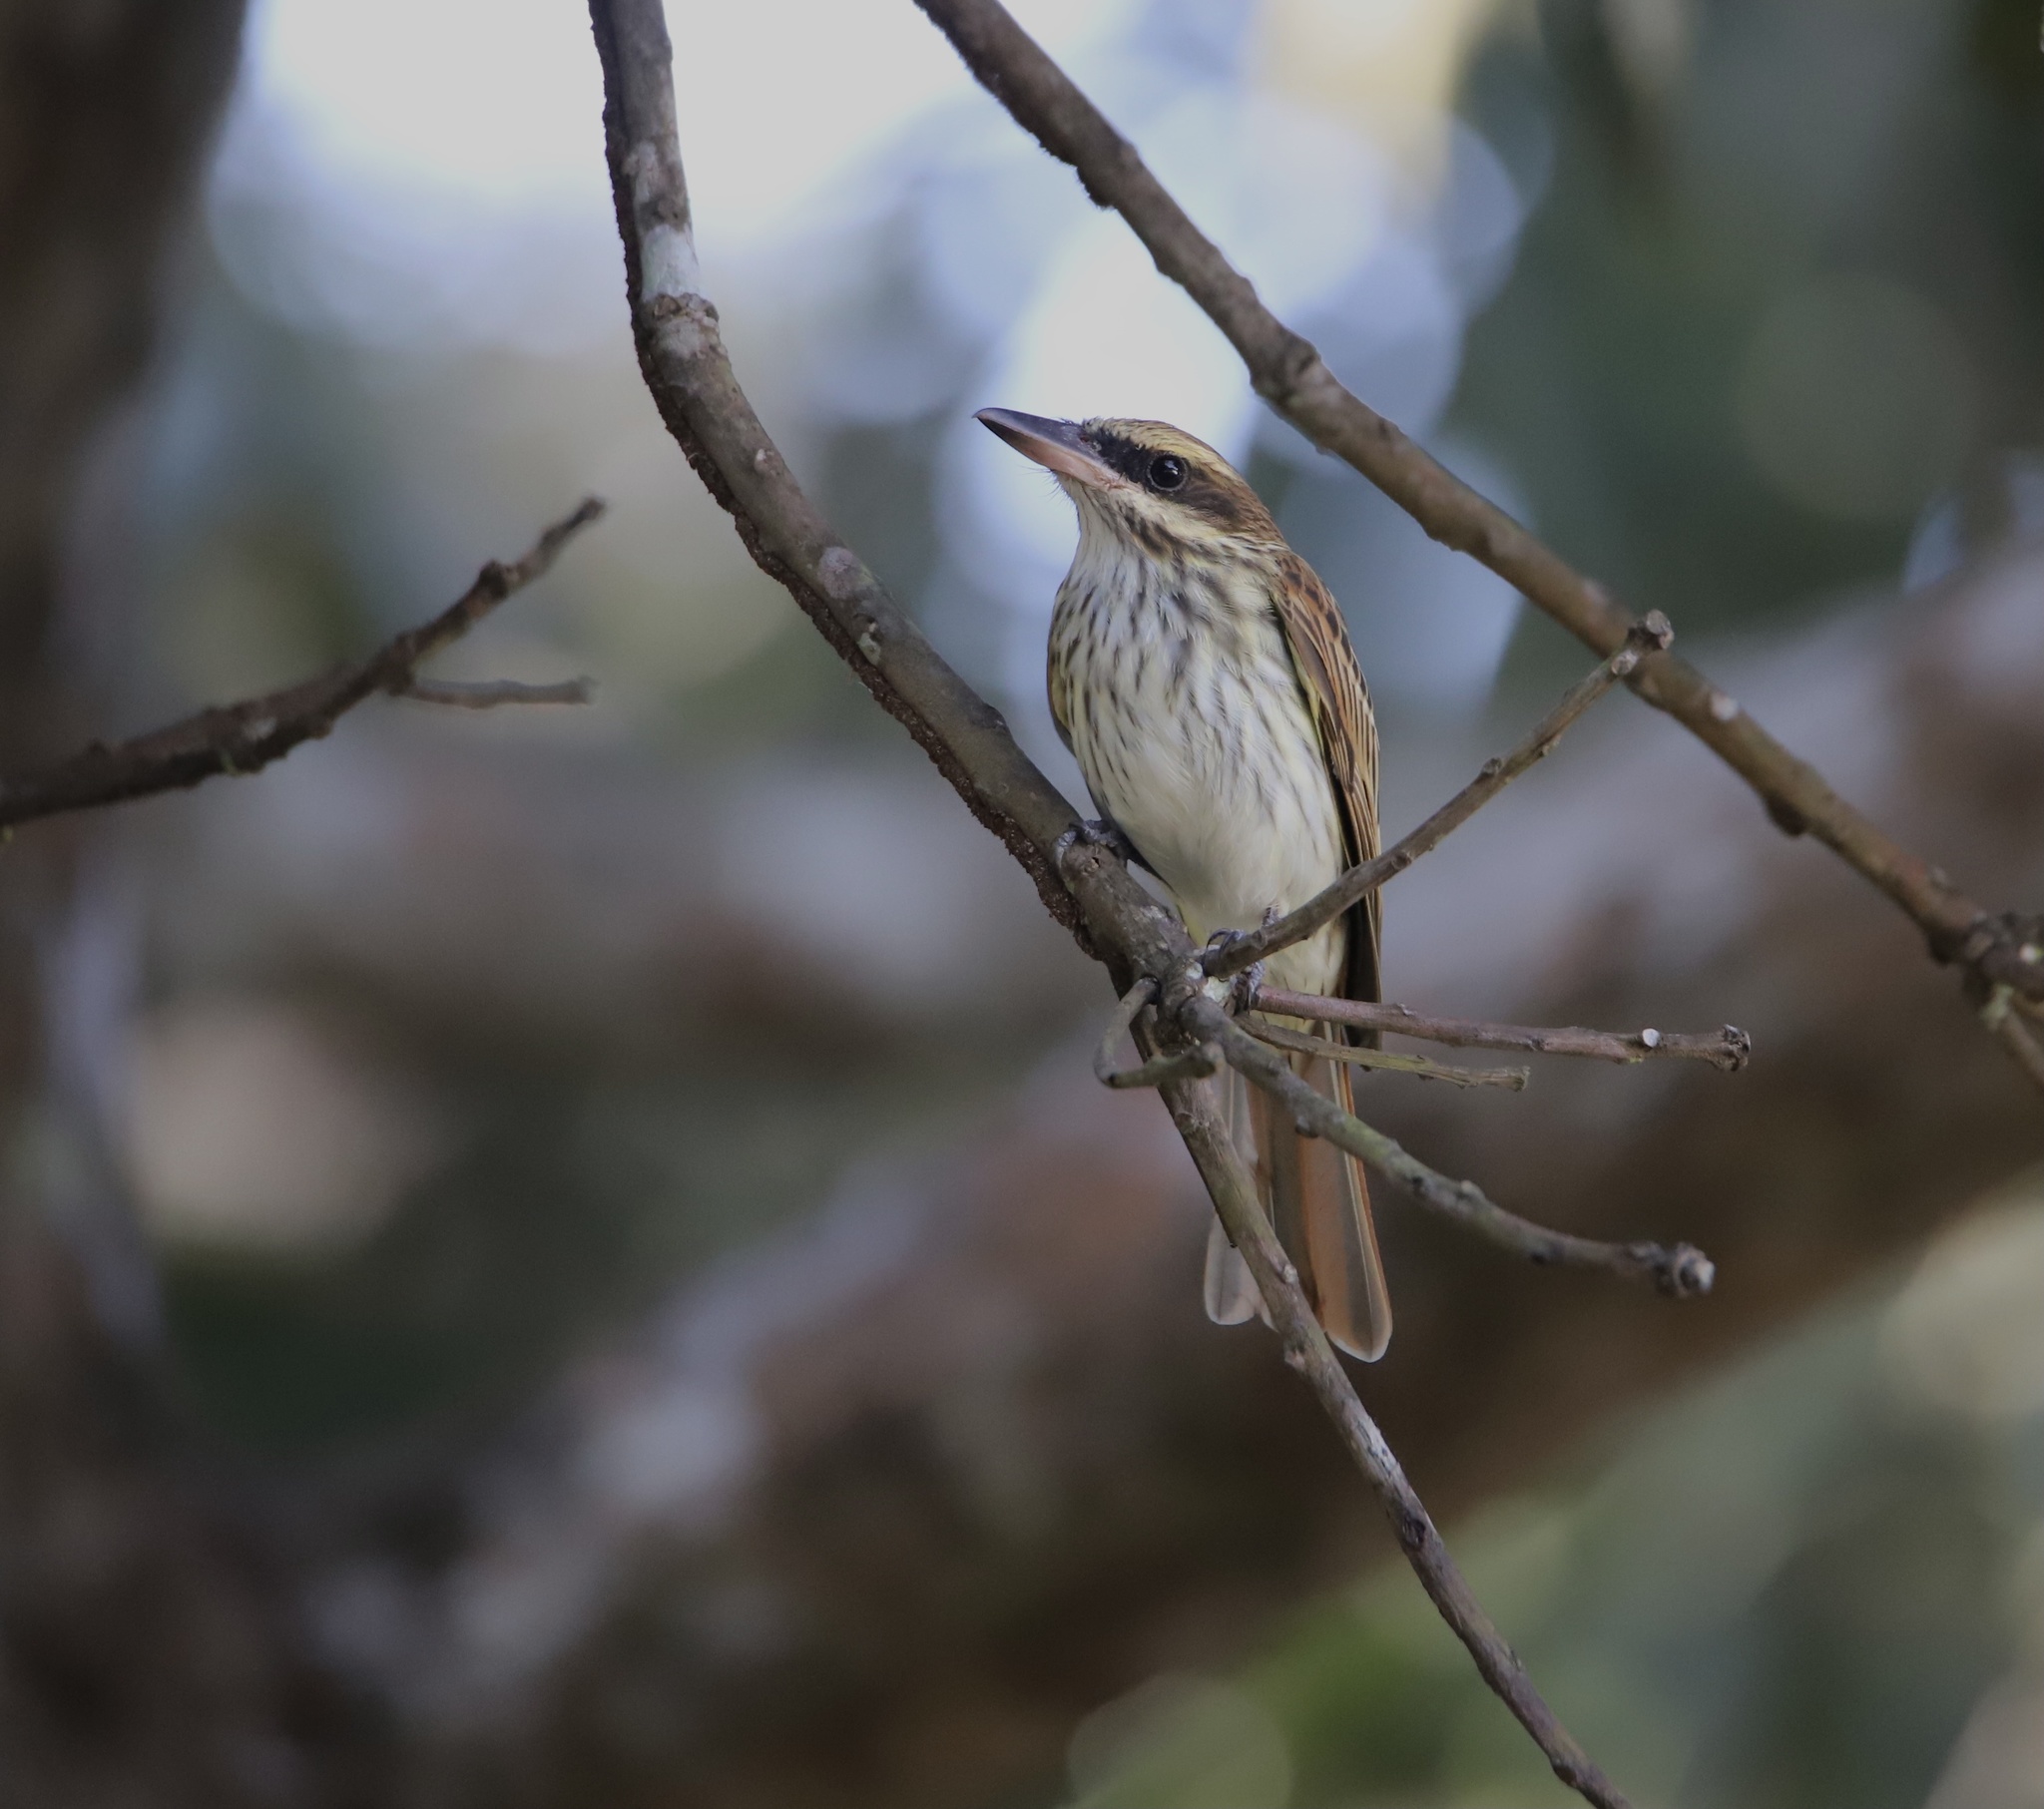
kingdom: Animalia
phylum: Chordata
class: Aves
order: Passeriformes
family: Tyrannidae
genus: Myiodynastes
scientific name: Myiodynastes maculatus
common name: Streaked flycatcher
